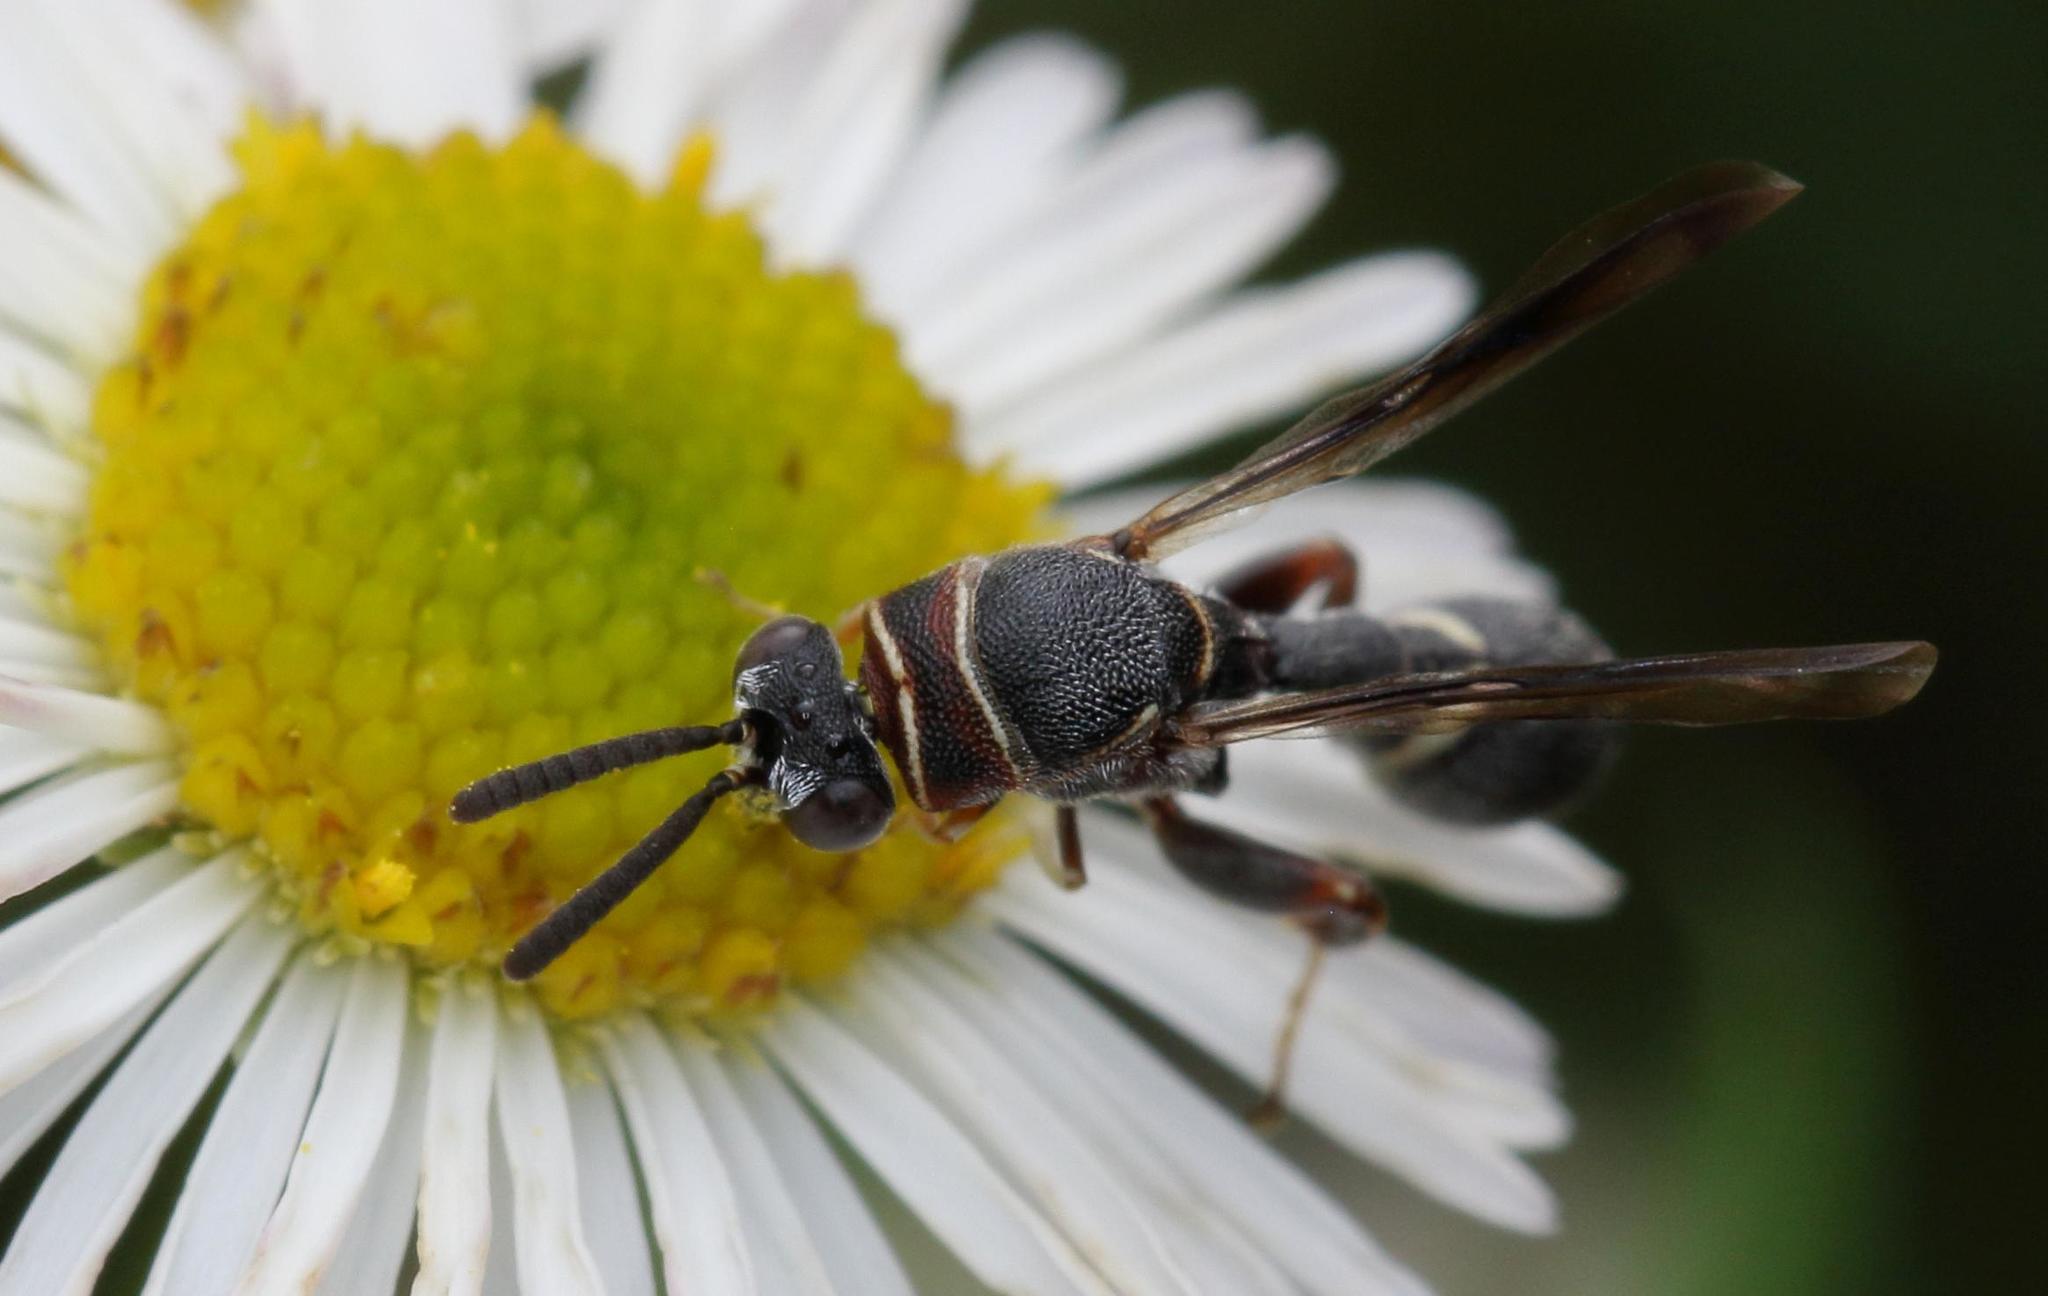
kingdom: Animalia
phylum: Arthropoda
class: Insecta
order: Hymenoptera
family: Leucospidae
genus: Micrapion
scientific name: Micrapion bilineatum
